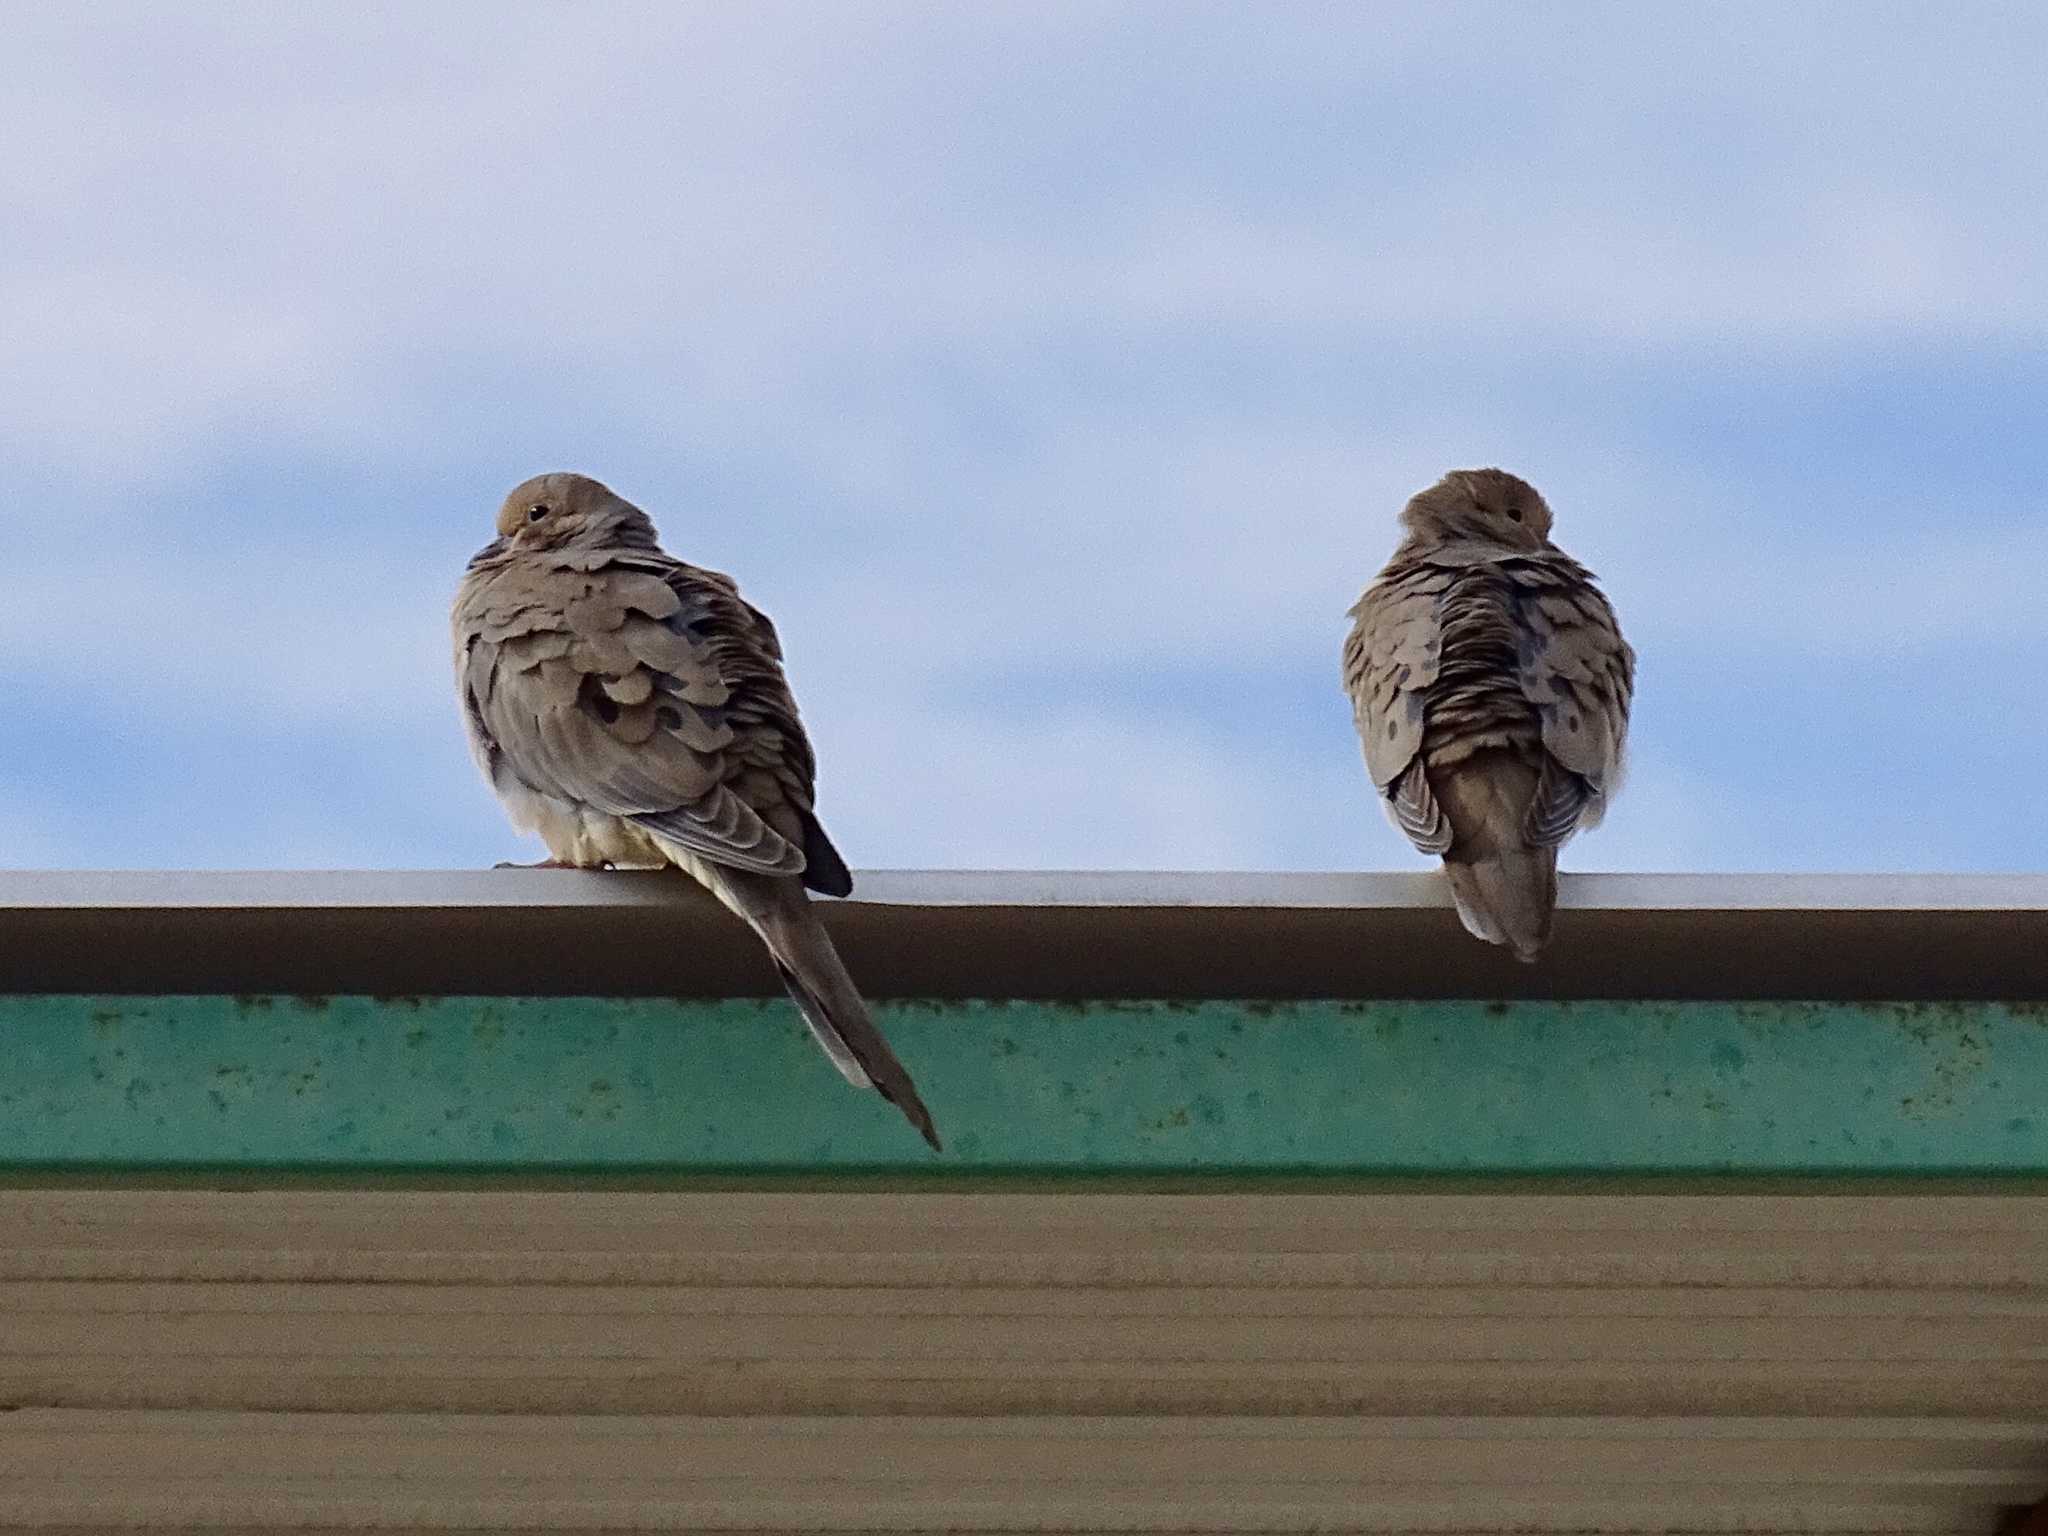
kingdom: Animalia
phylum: Chordata
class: Aves
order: Columbiformes
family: Columbidae
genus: Zenaida
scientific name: Zenaida macroura
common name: Mourning dove
